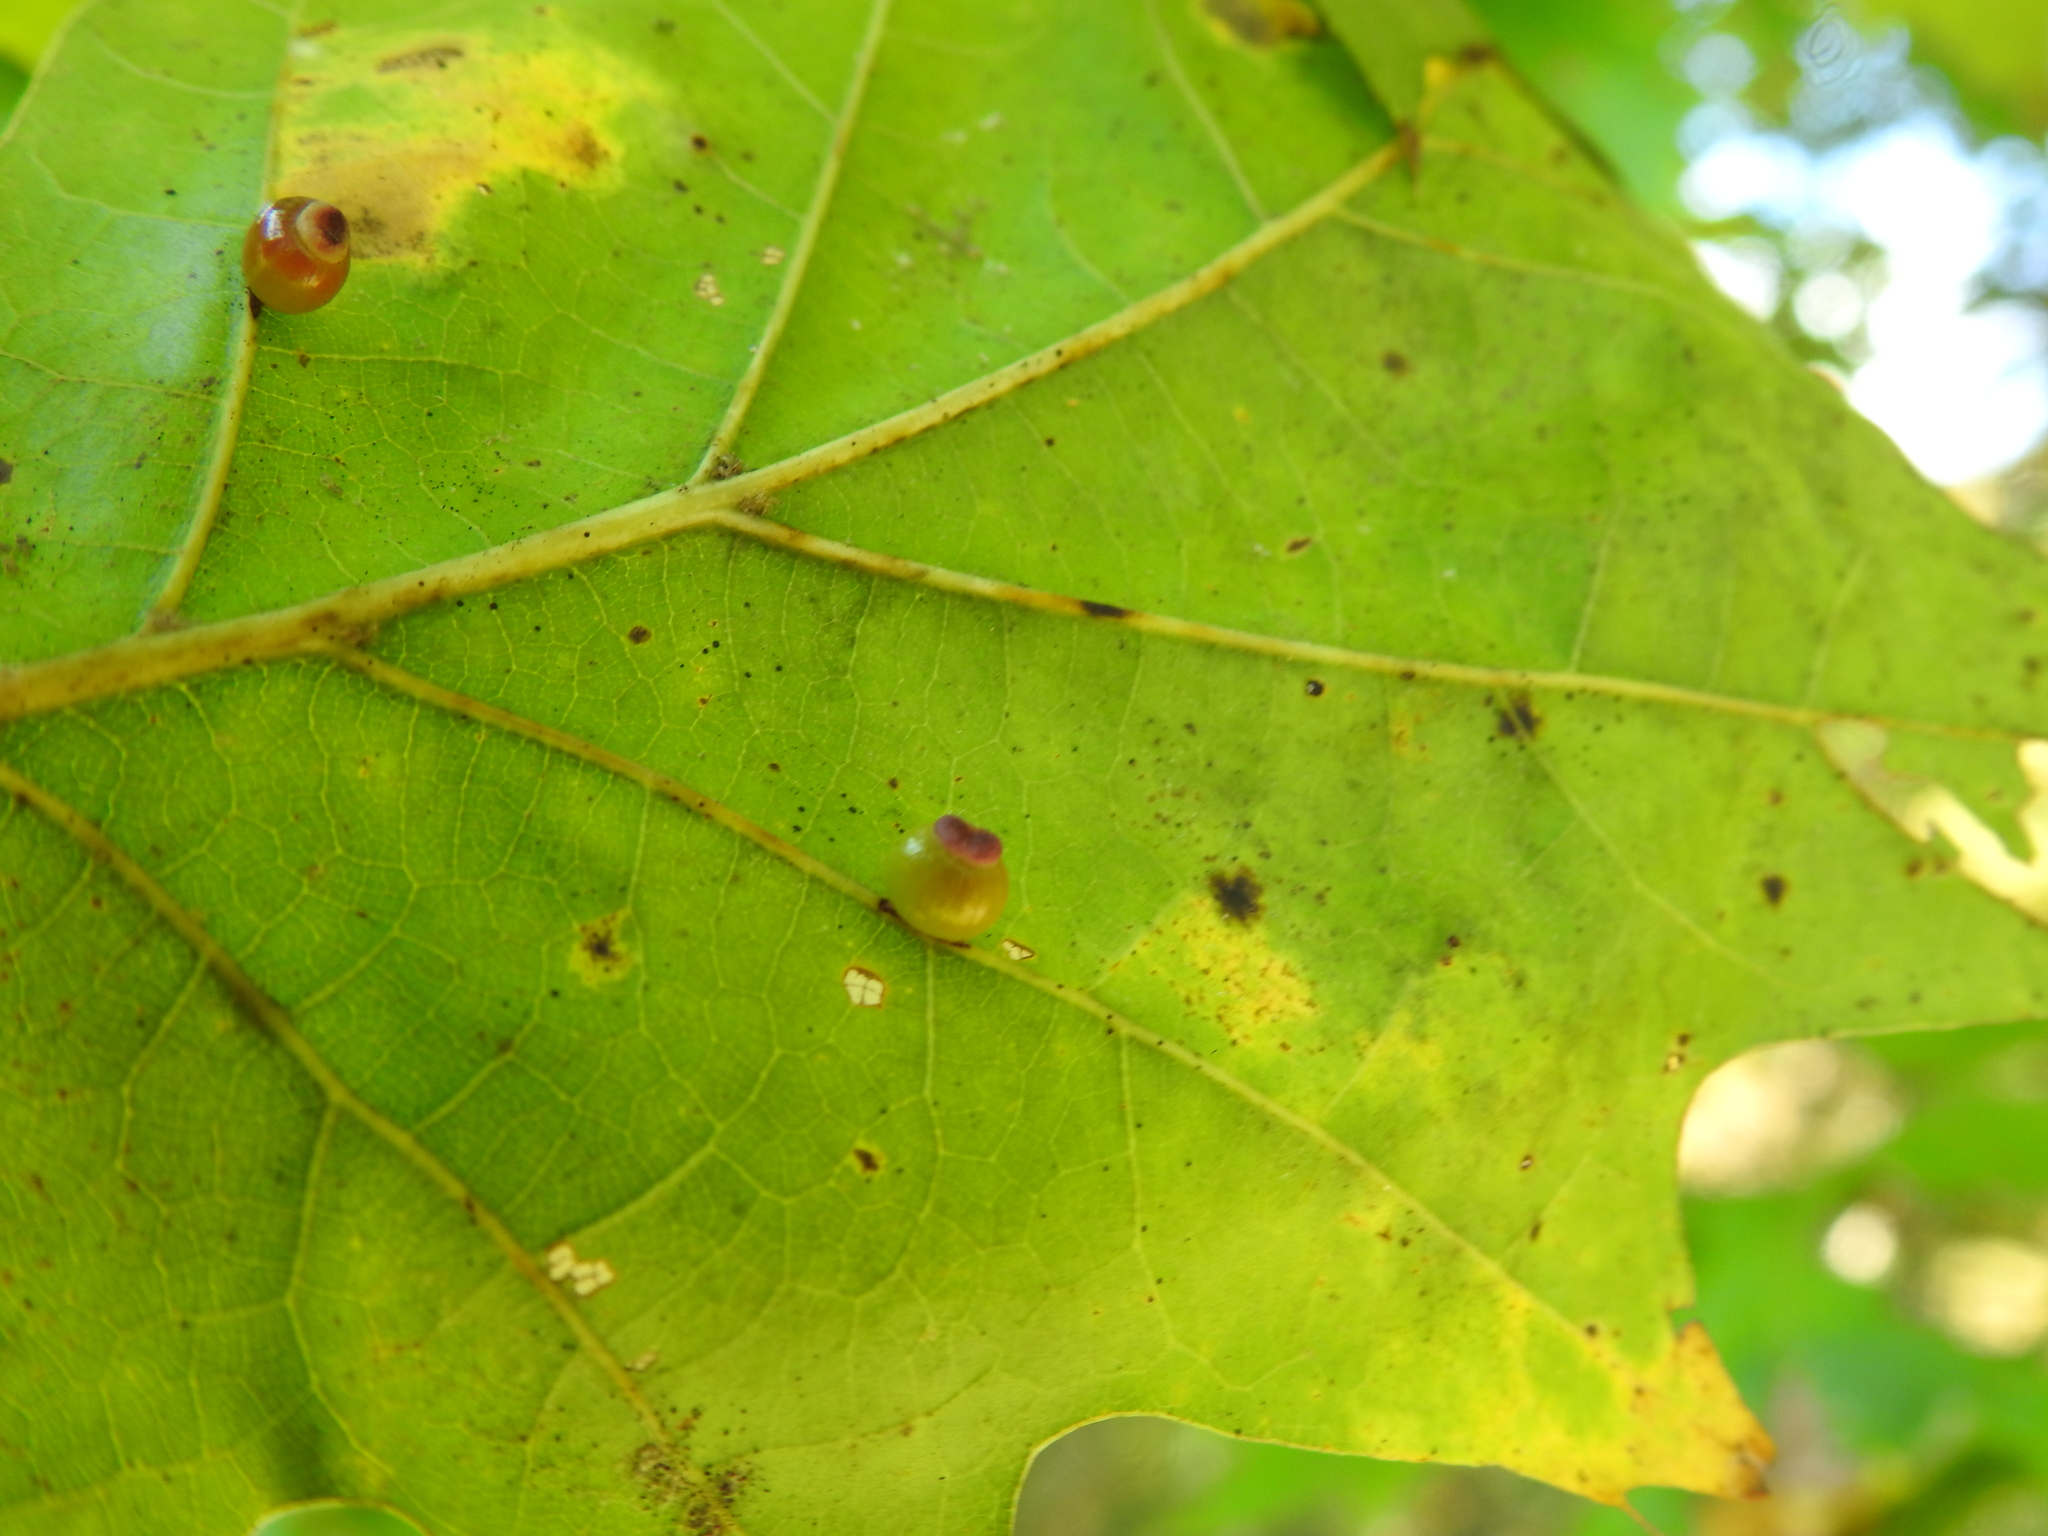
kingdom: Animalia
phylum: Arthropoda
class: Insecta
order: Hymenoptera
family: Cynipidae
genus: Kokkocynips
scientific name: Kokkocynips rileyi
